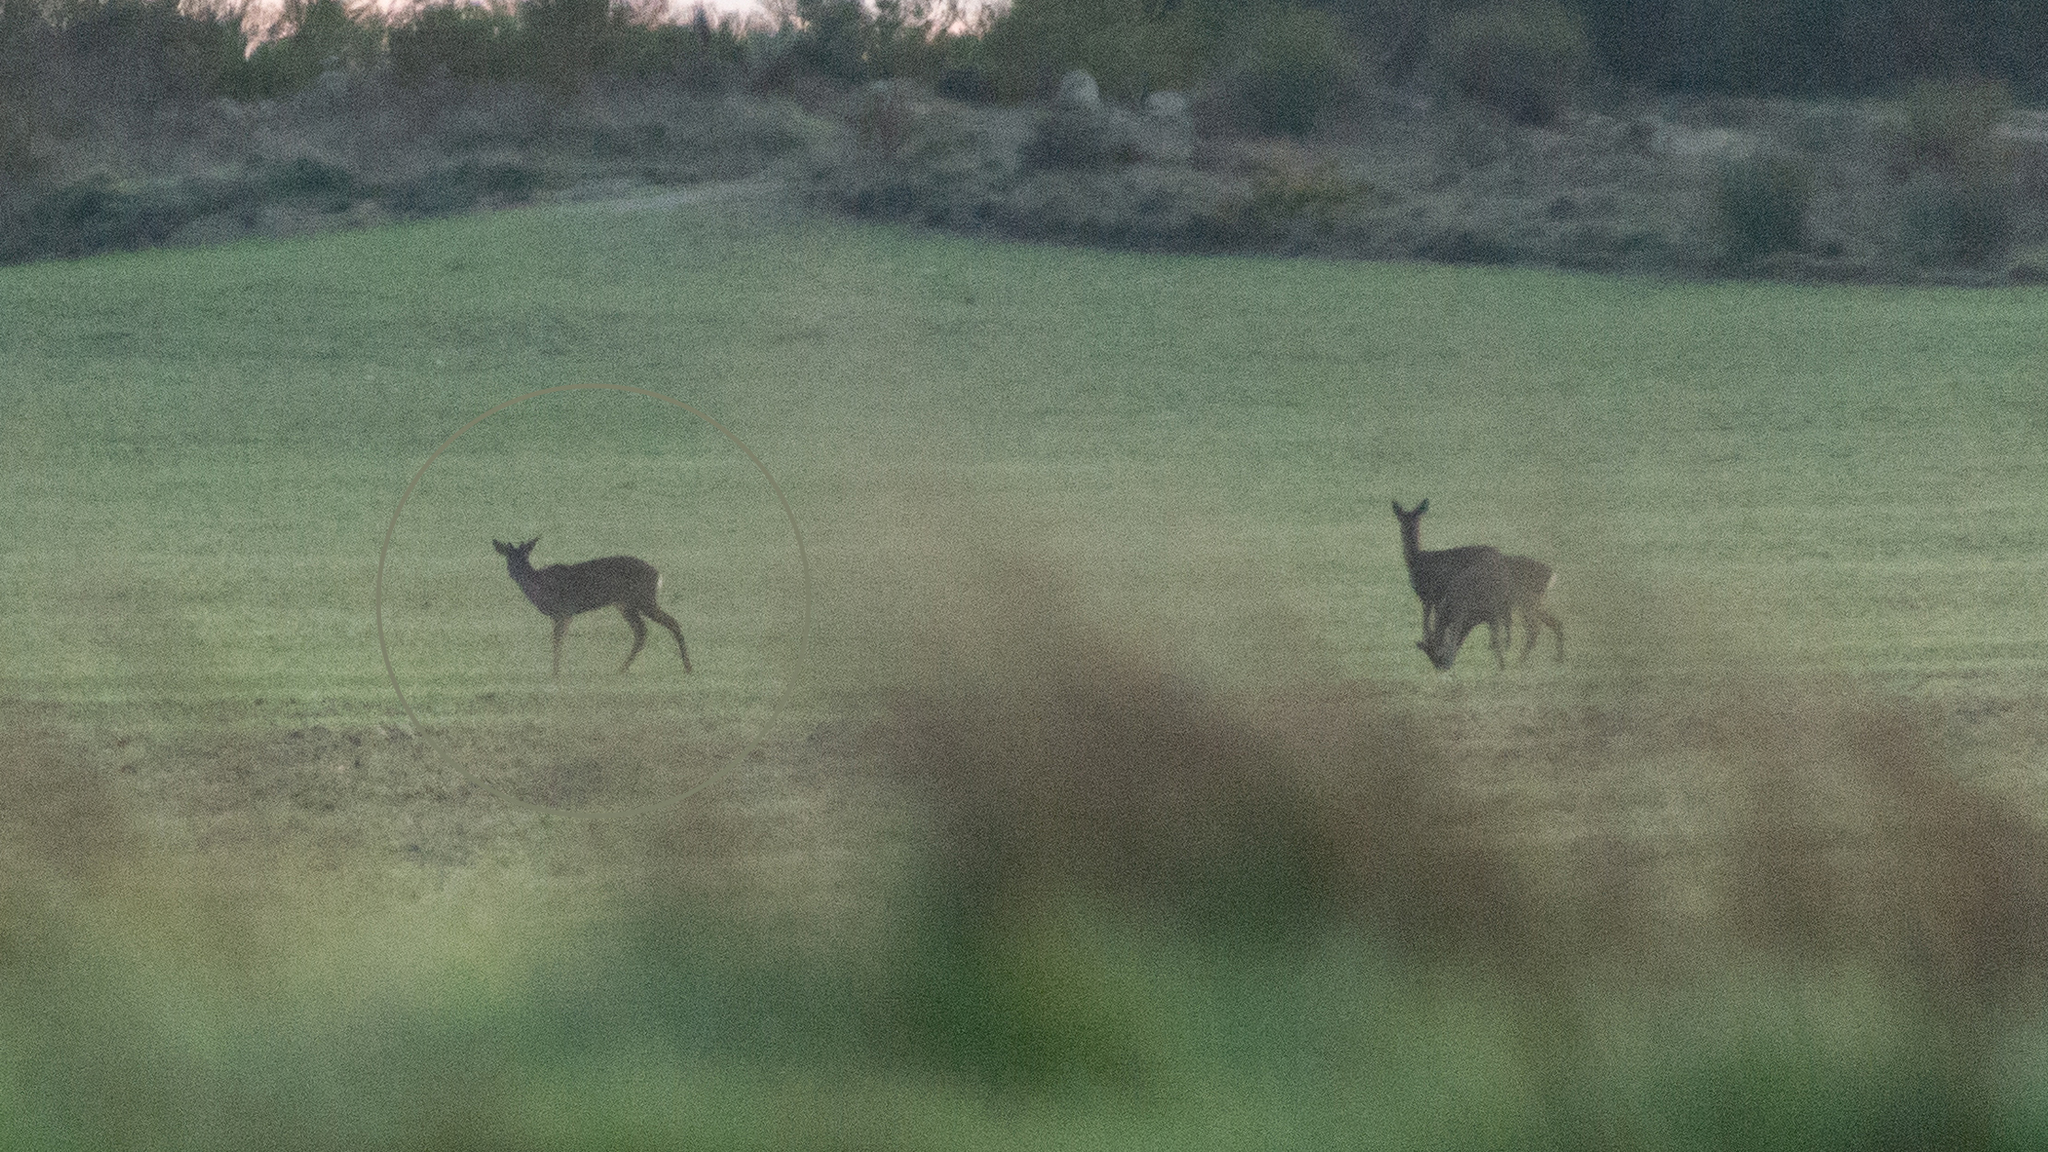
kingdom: Animalia
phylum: Chordata
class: Mammalia
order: Artiodactyla
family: Cervidae
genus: Capreolus
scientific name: Capreolus capreolus
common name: Western roe deer
